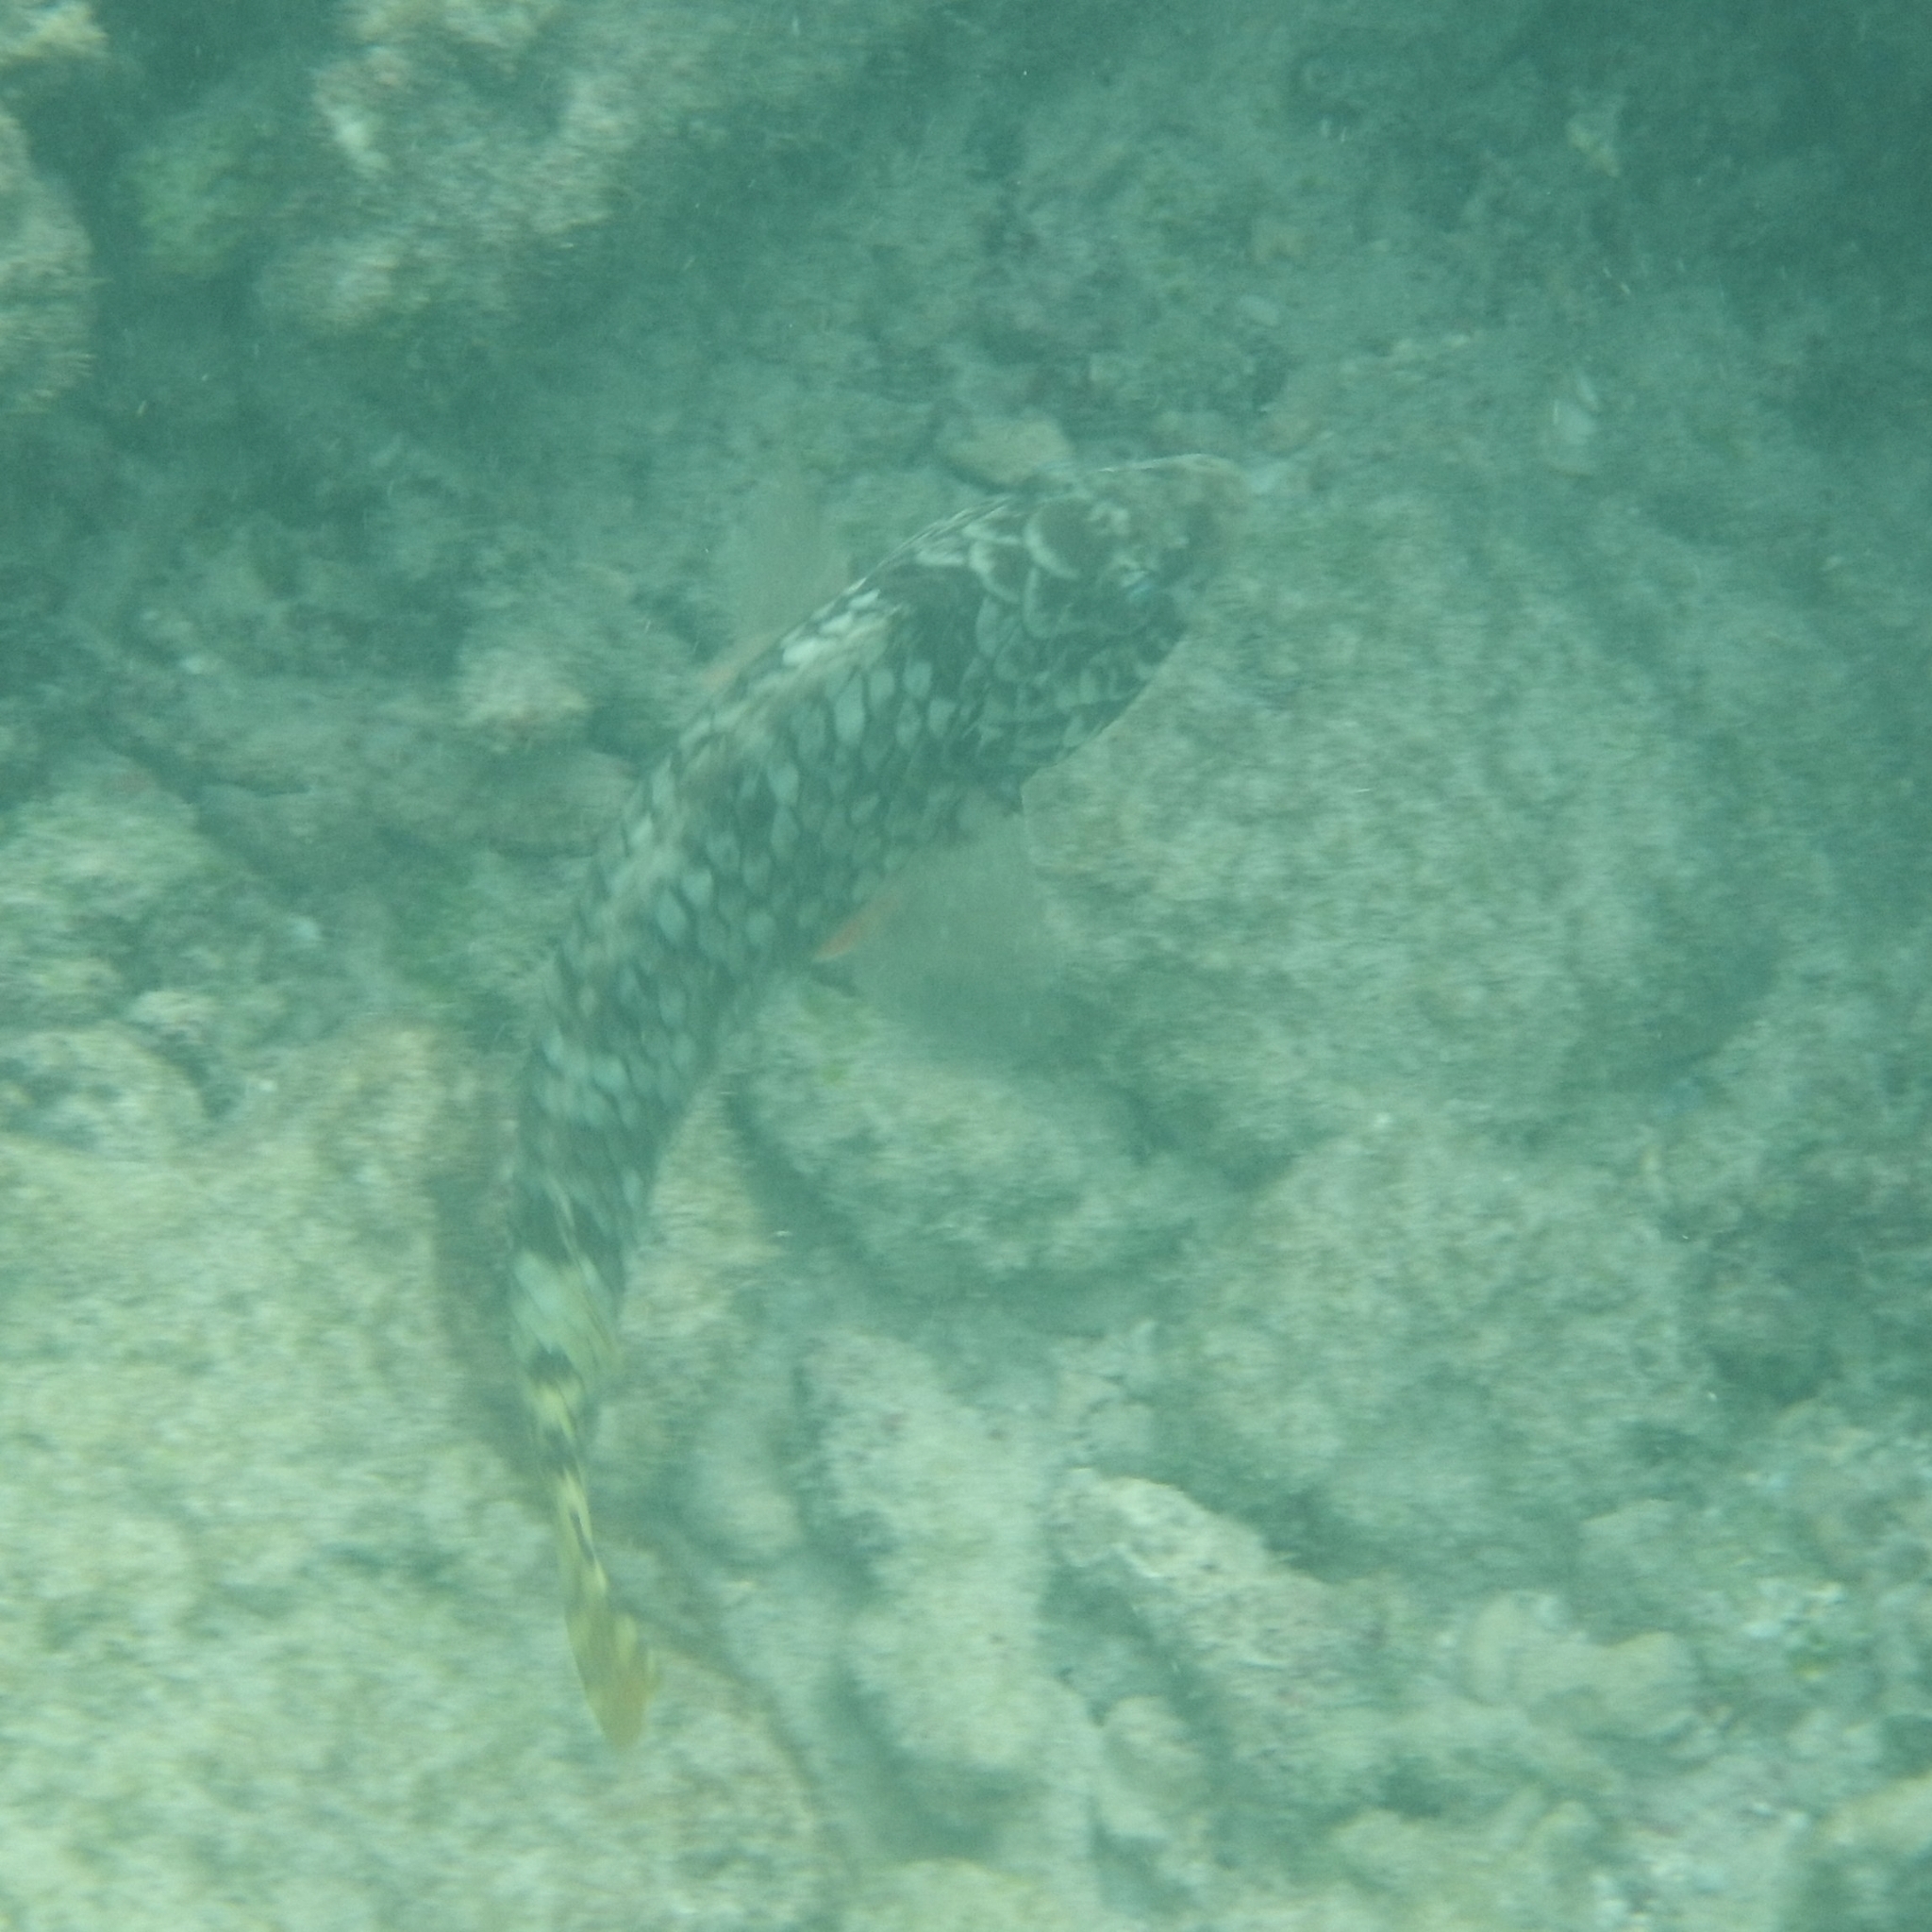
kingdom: Animalia
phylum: Chordata
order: Perciformes
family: Scaridae
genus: Sparisoma
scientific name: Sparisoma rubripinne
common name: Redfin parrotfish
